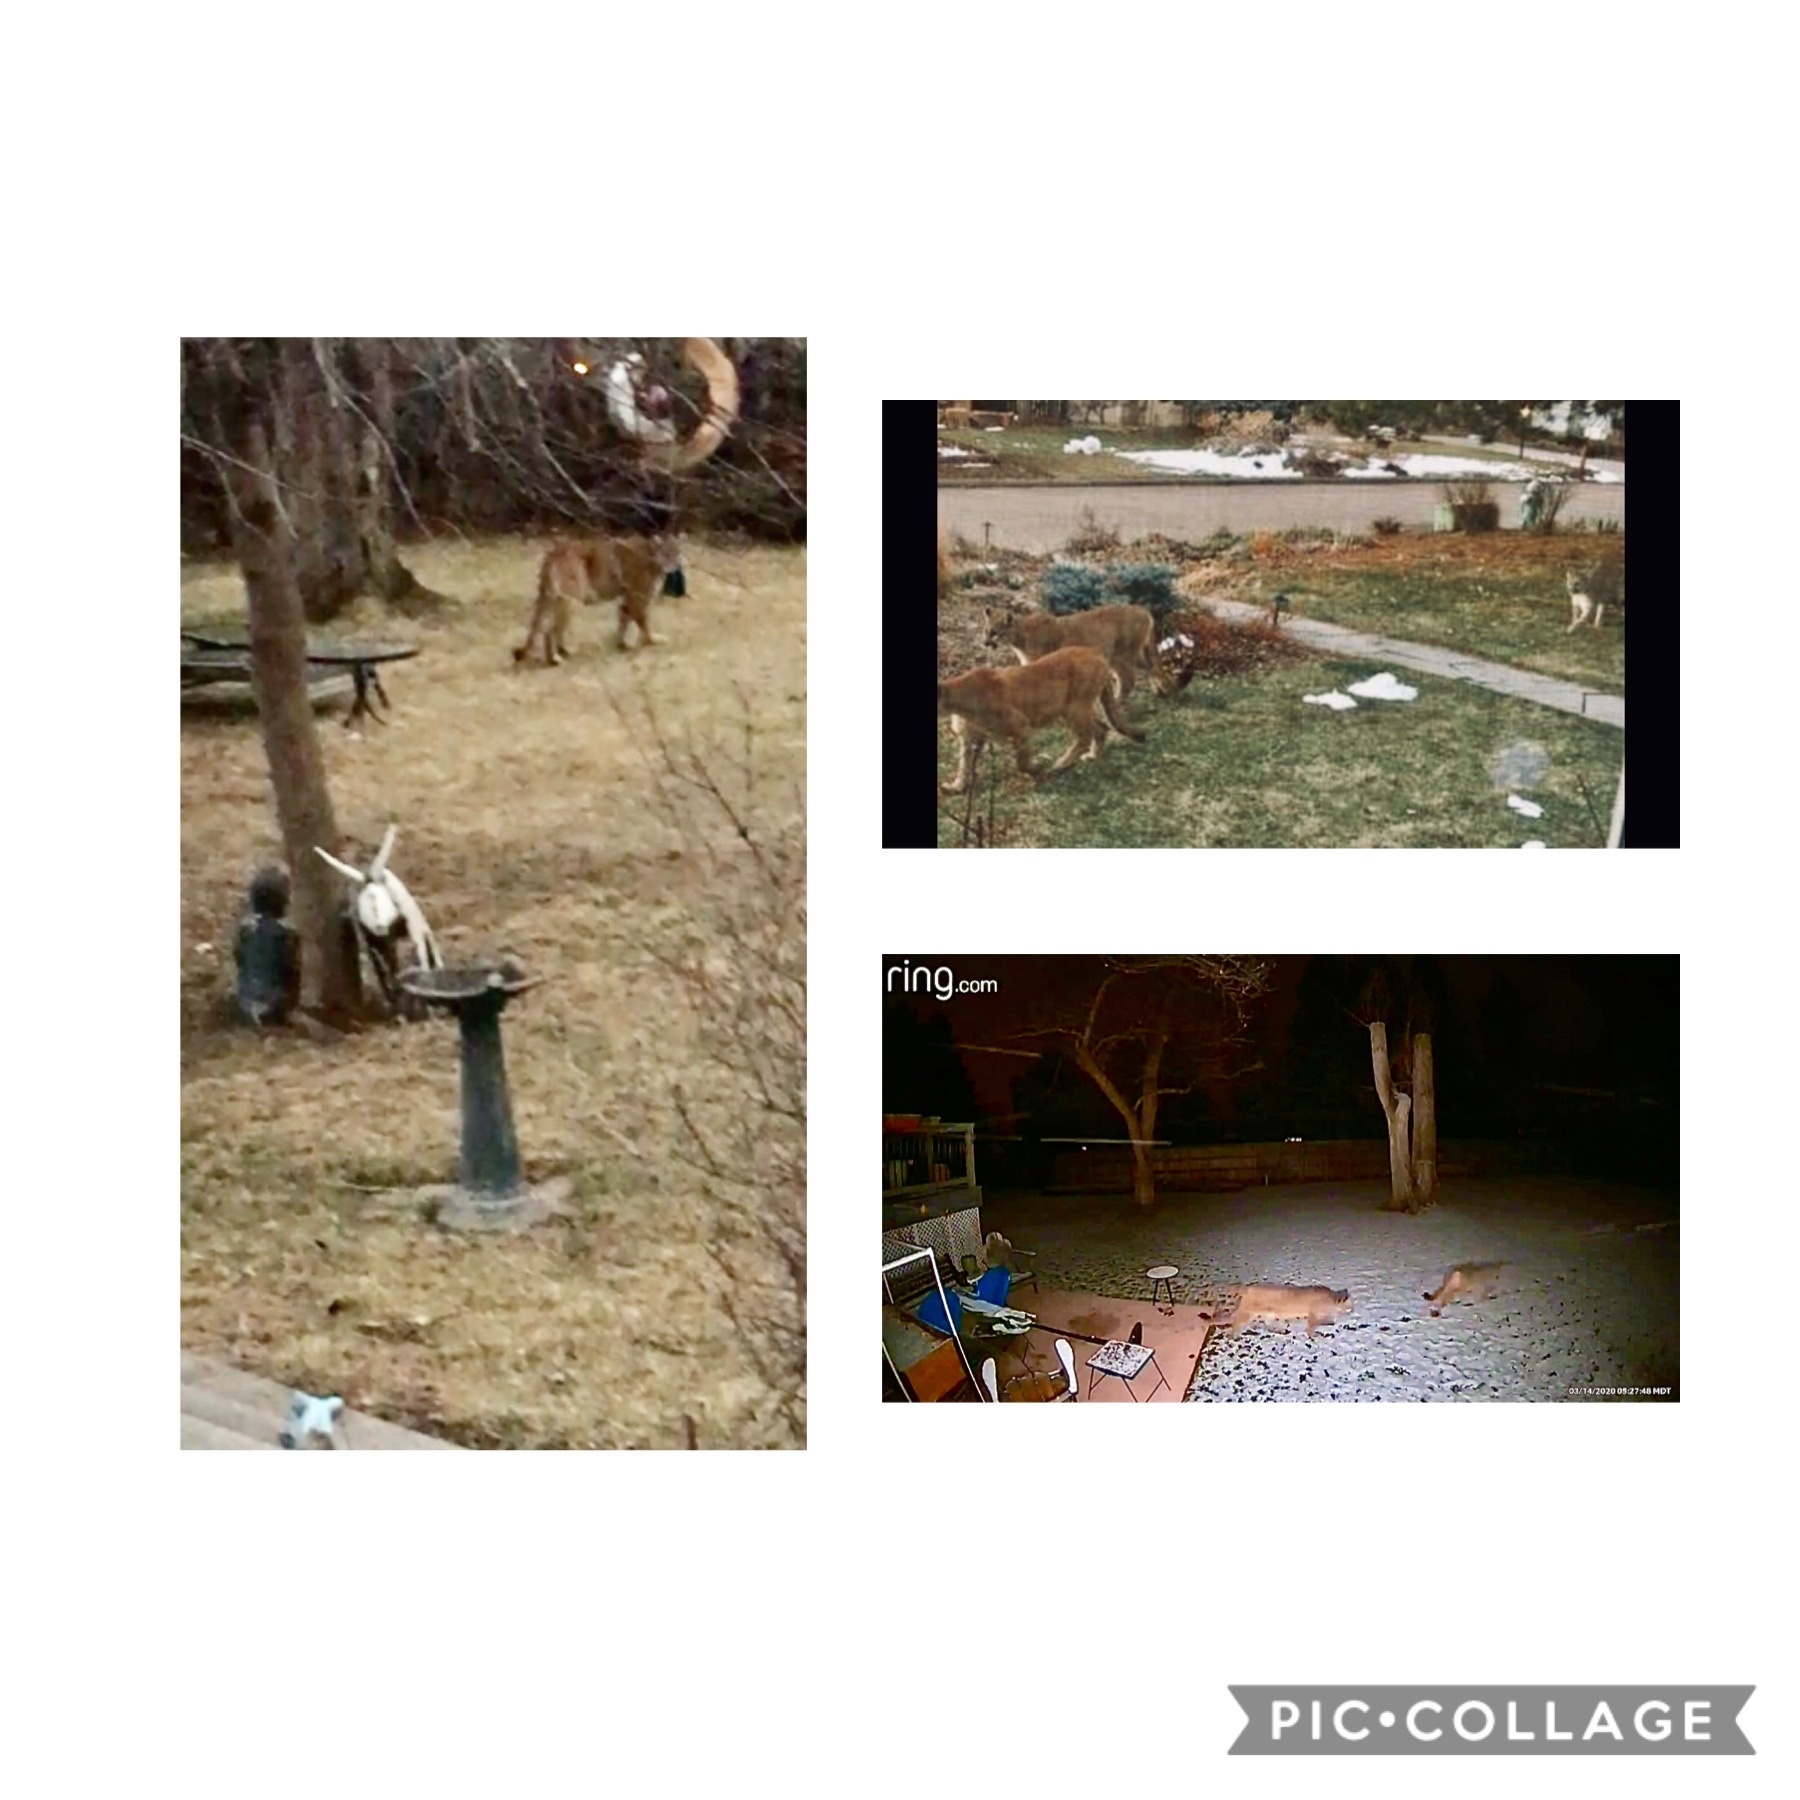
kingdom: Animalia
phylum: Chordata
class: Mammalia
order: Carnivora
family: Felidae
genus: Puma
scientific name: Puma concolor
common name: Puma
